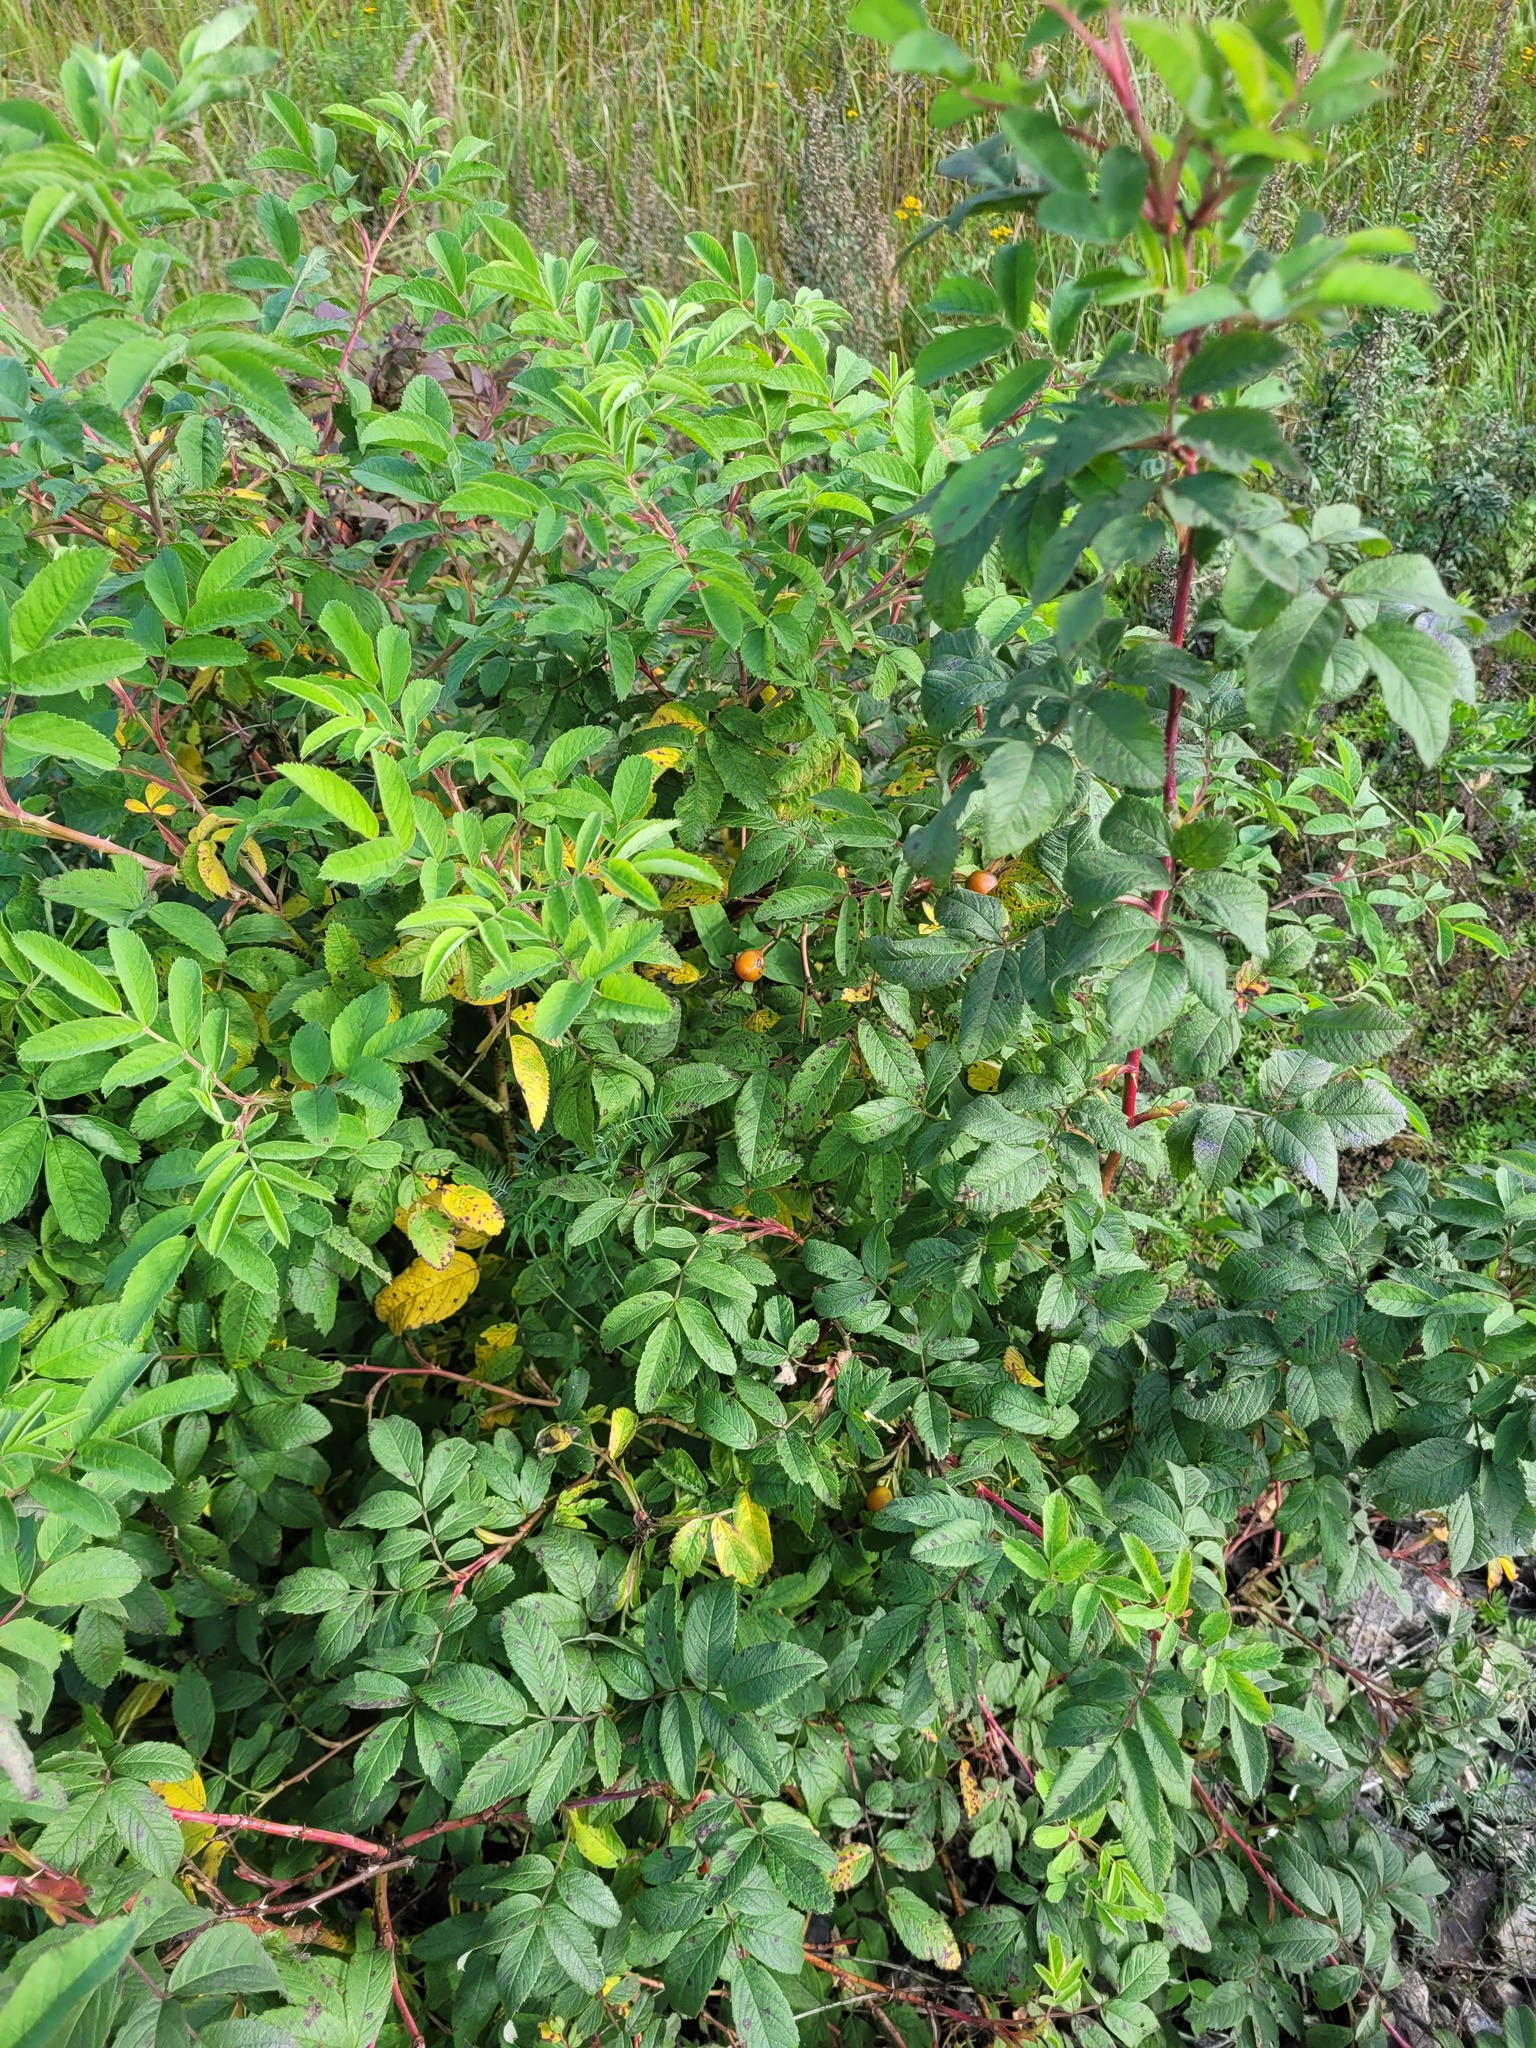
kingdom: Plantae
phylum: Tracheophyta
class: Magnoliopsida
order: Rosales
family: Rosaceae
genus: Rosa
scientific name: Rosa majalis
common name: Cinnamon rose
